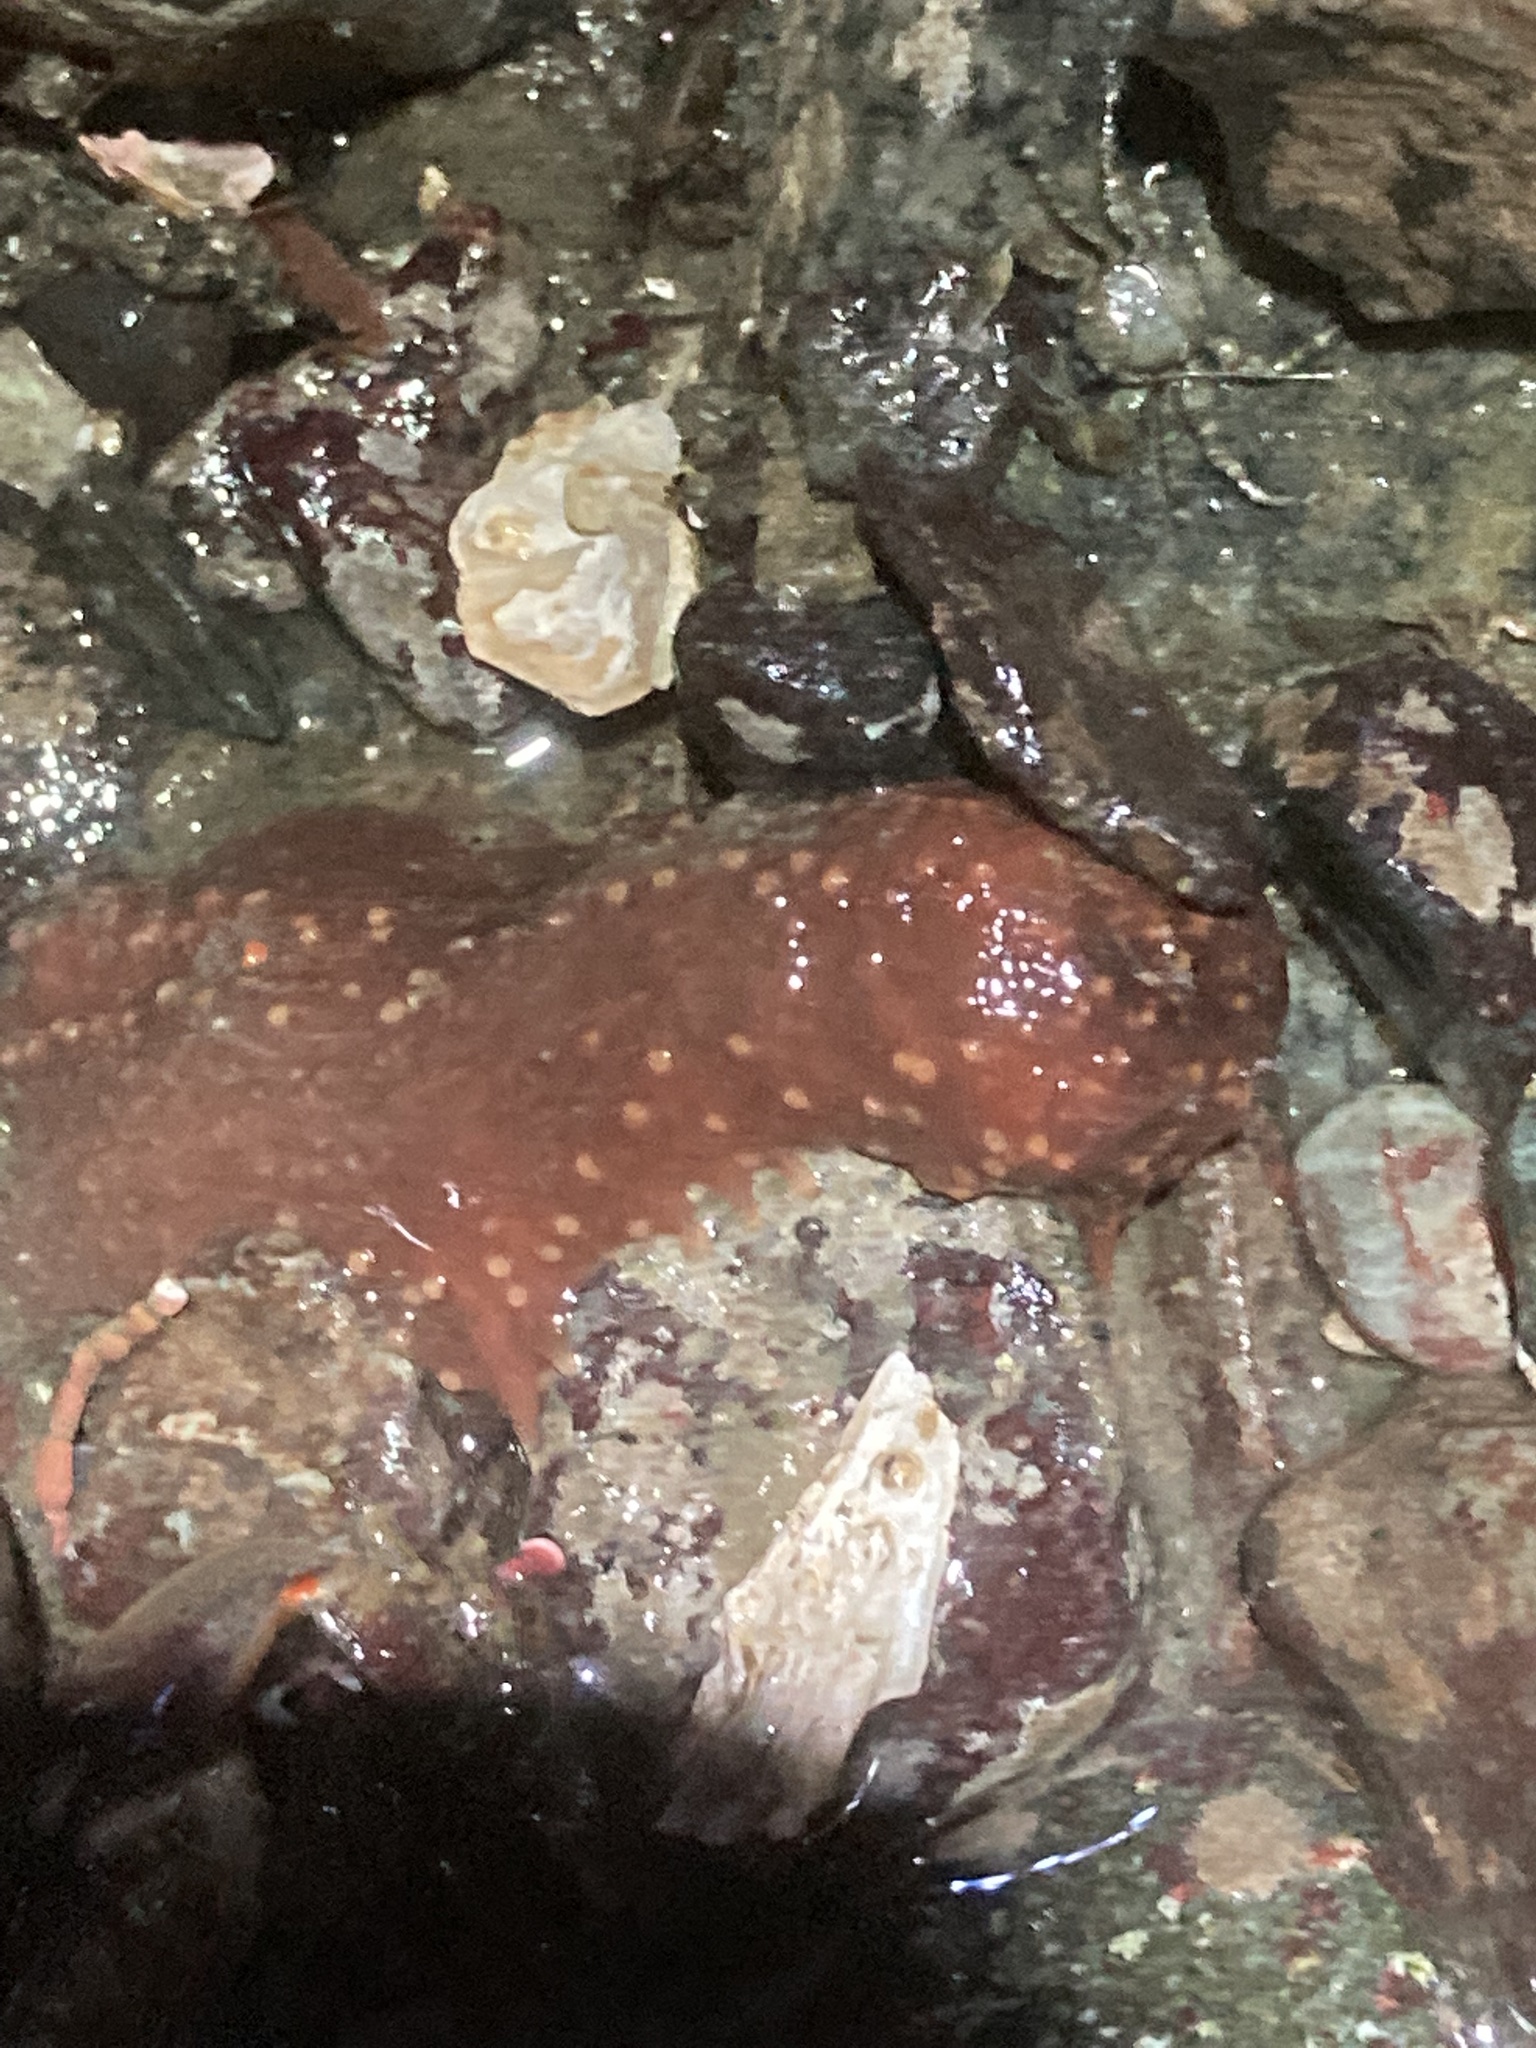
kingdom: Animalia
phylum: Echinodermata
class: Holothuroidea
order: Dendrochirotida
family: Cucumariidae
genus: Cucumaria
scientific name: Cucumaria miniata
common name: Orange sea cucumber
